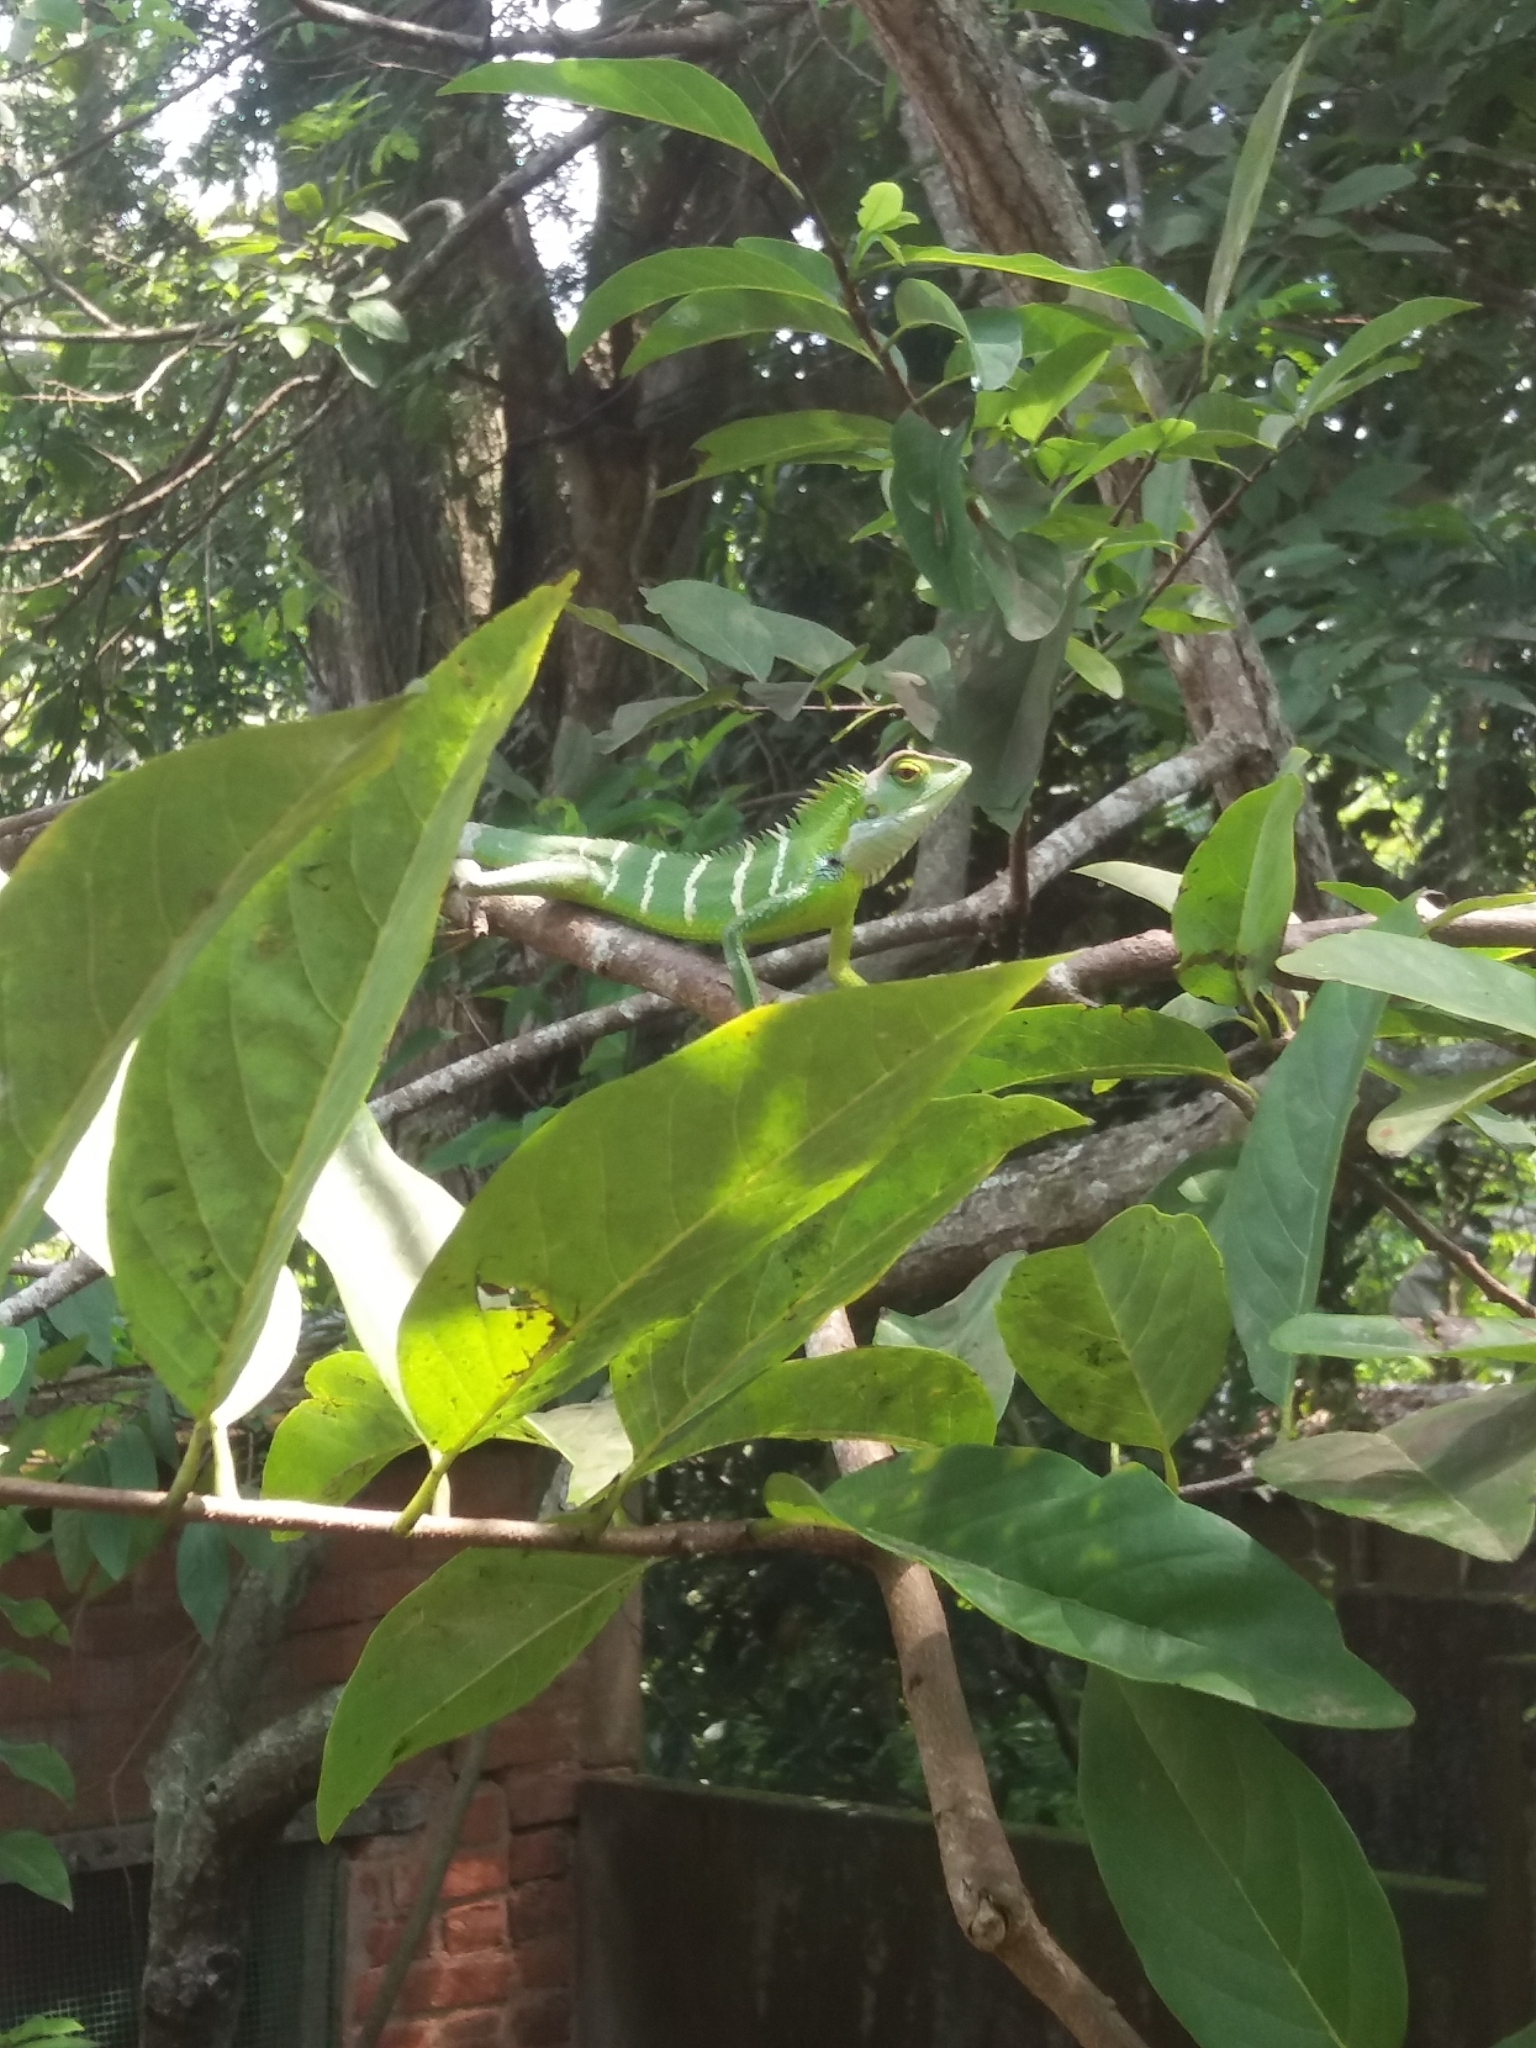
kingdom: Animalia
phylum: Chordata
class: Squamata
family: Agamidae
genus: Calotes
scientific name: Calotes calotes
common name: Common green forest lizard
